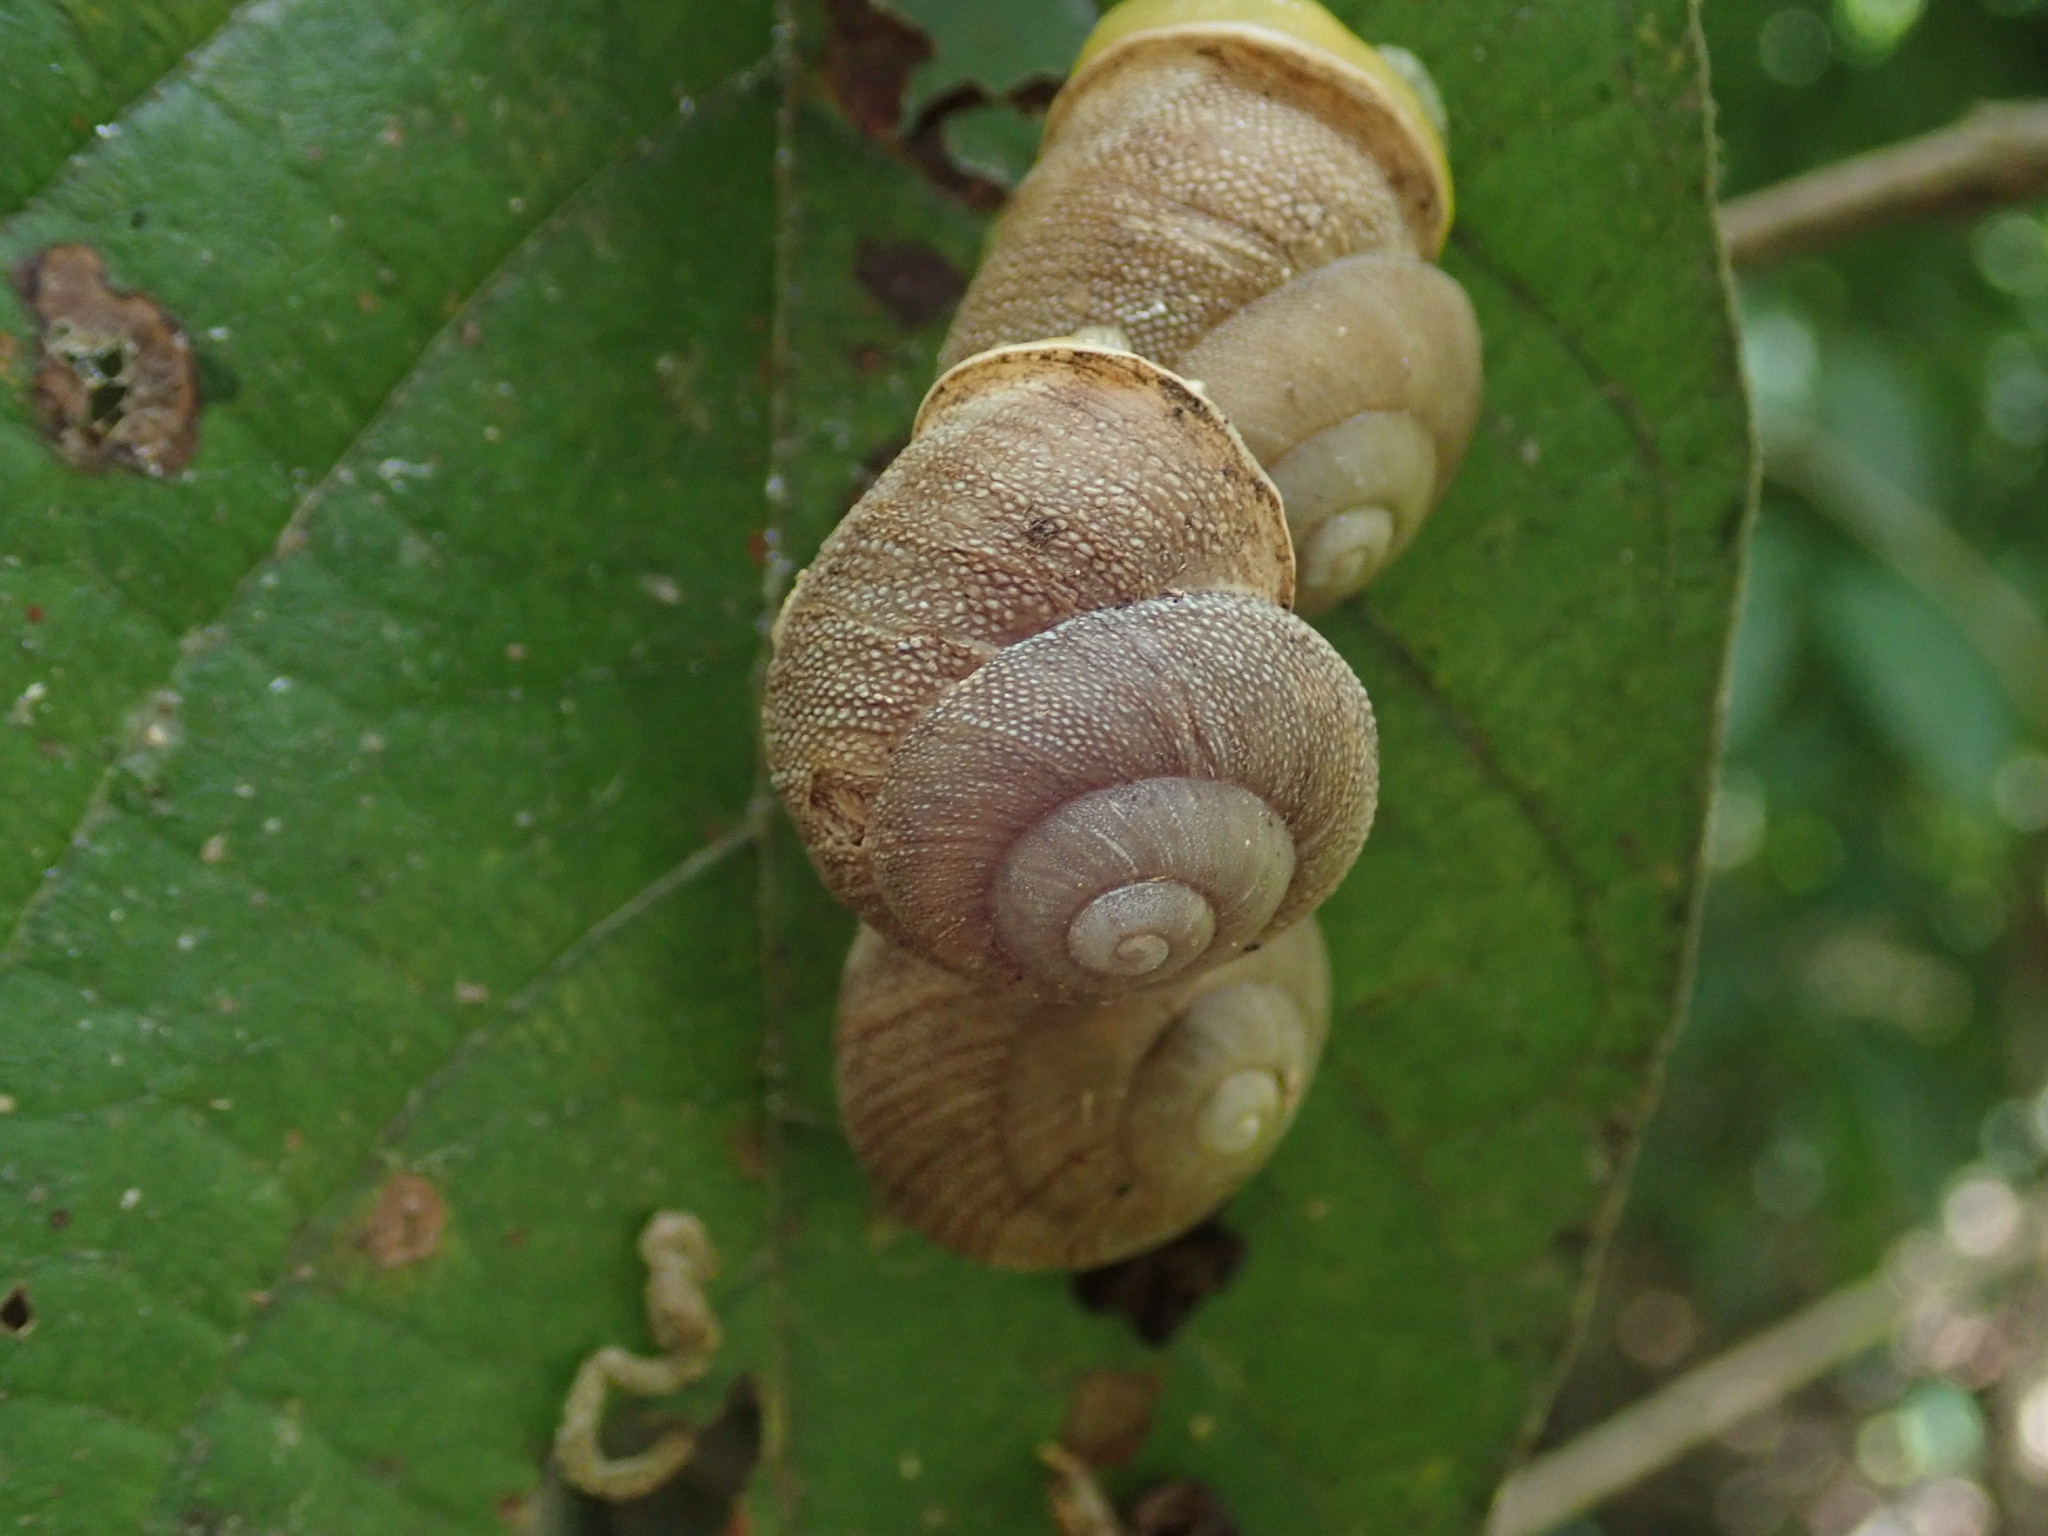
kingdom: Animalia
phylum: Mollusca
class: Gastropoda
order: Stylommatophora
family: Sagdidae
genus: Granodomus
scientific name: Granodomus lima
